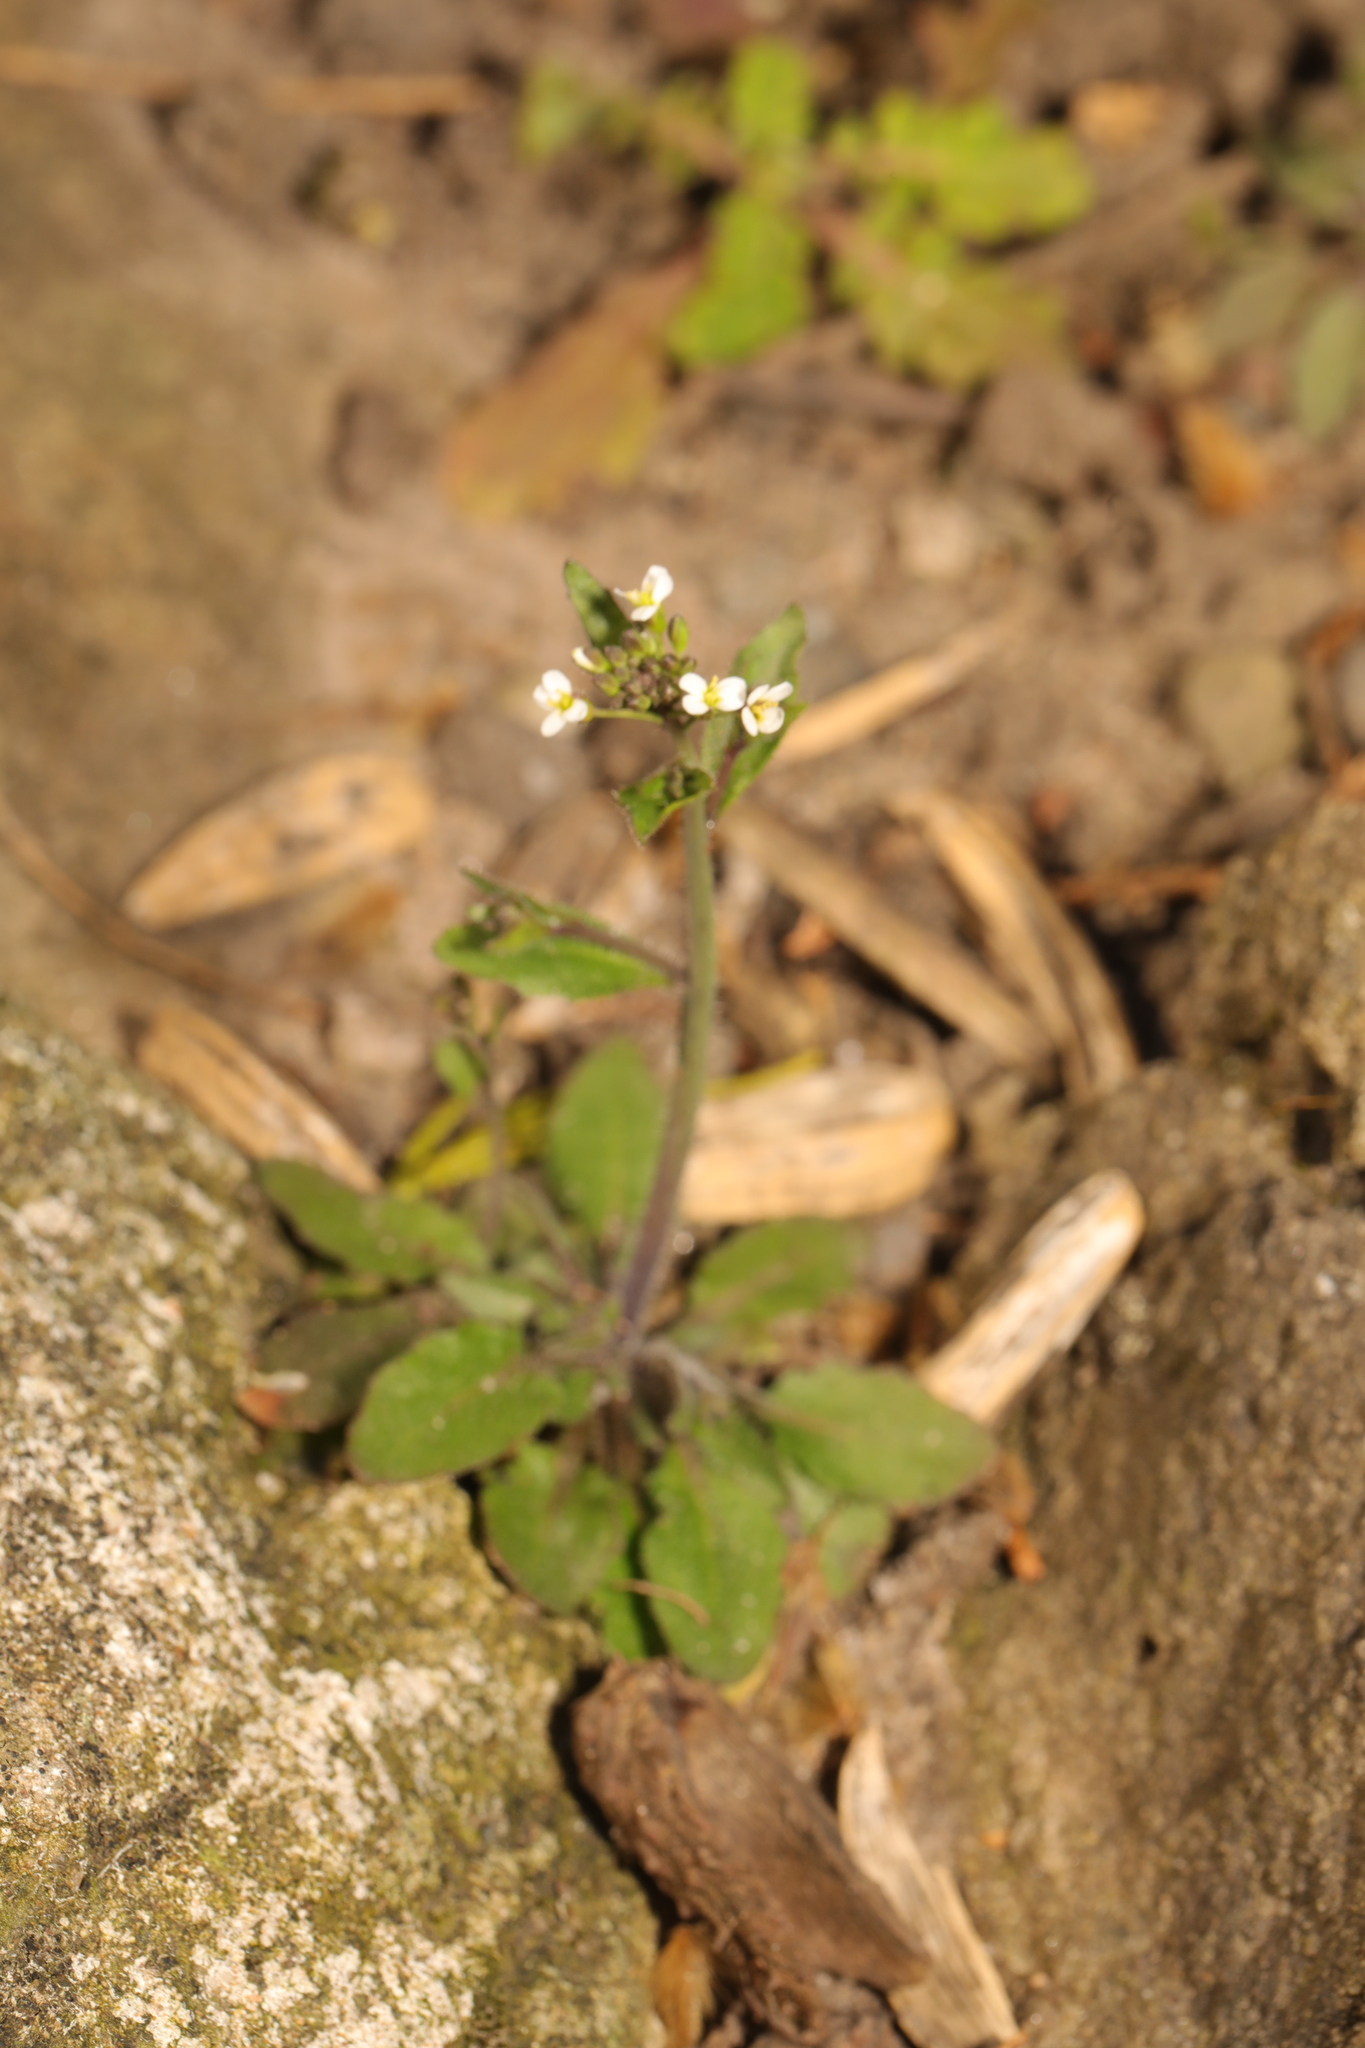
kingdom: Plantae
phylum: Tracheophyta
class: Magnoliopsida
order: Brassicales
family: Brassicaceae
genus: Arabidopsis
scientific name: Arabidopsis thaliana
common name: Thale cress
